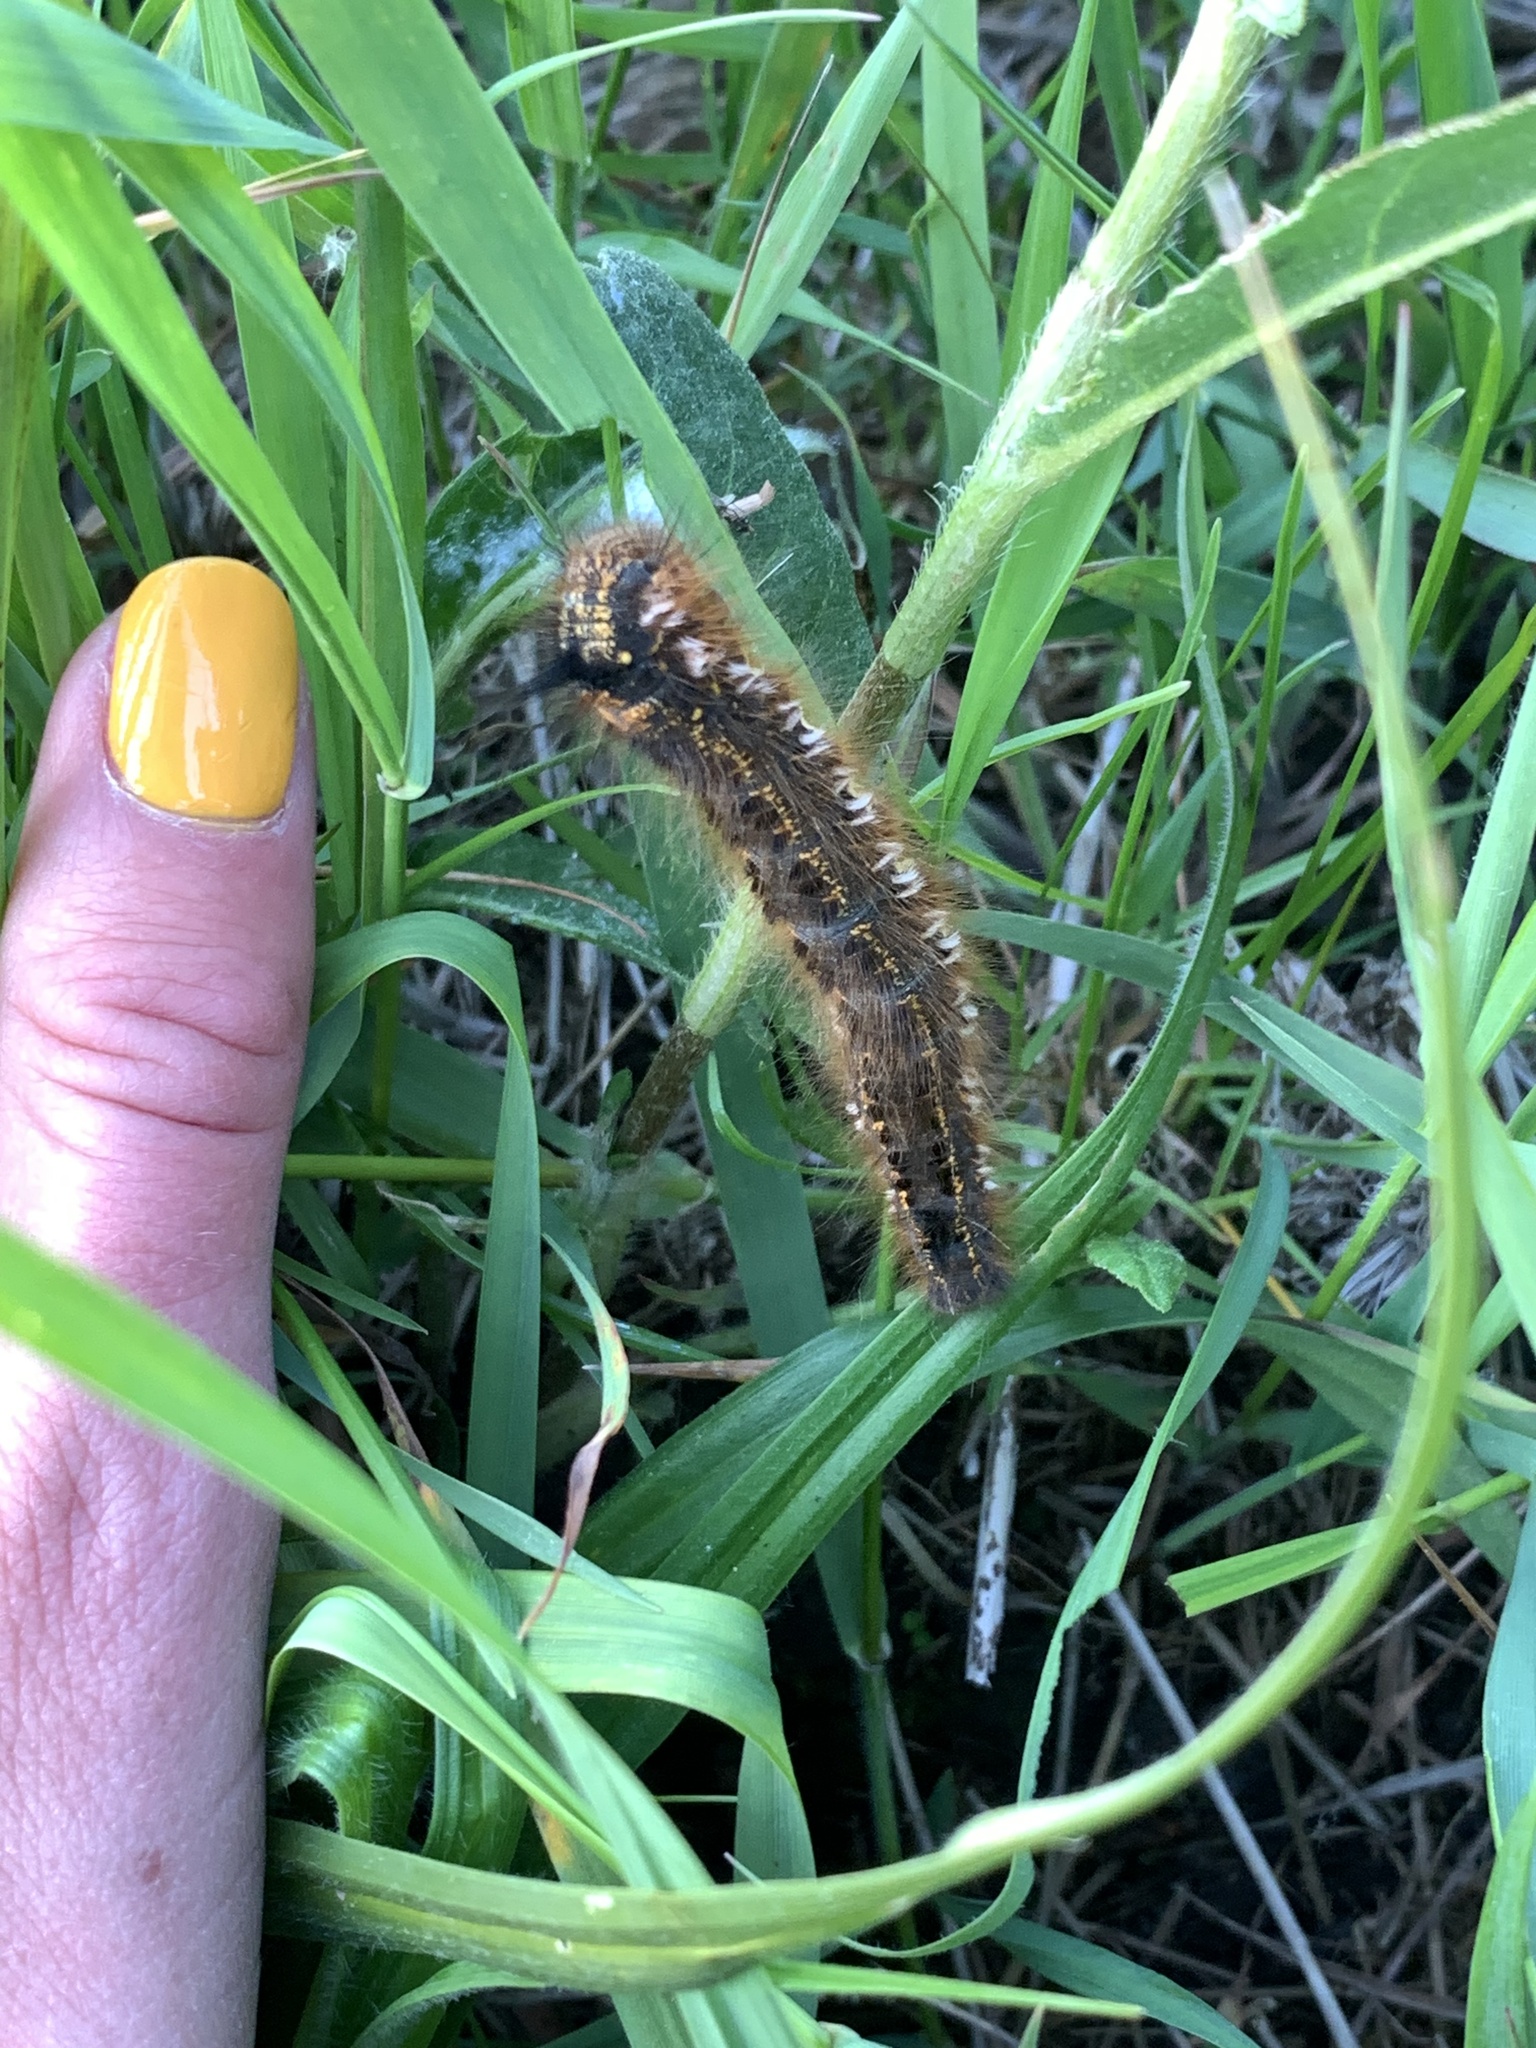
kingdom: Animalia
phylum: Arthropoda
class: Insecta
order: Lepidoptera
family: Lasiocampidae
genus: Euthrix
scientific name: Euthrix potatoria
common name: Drinker
